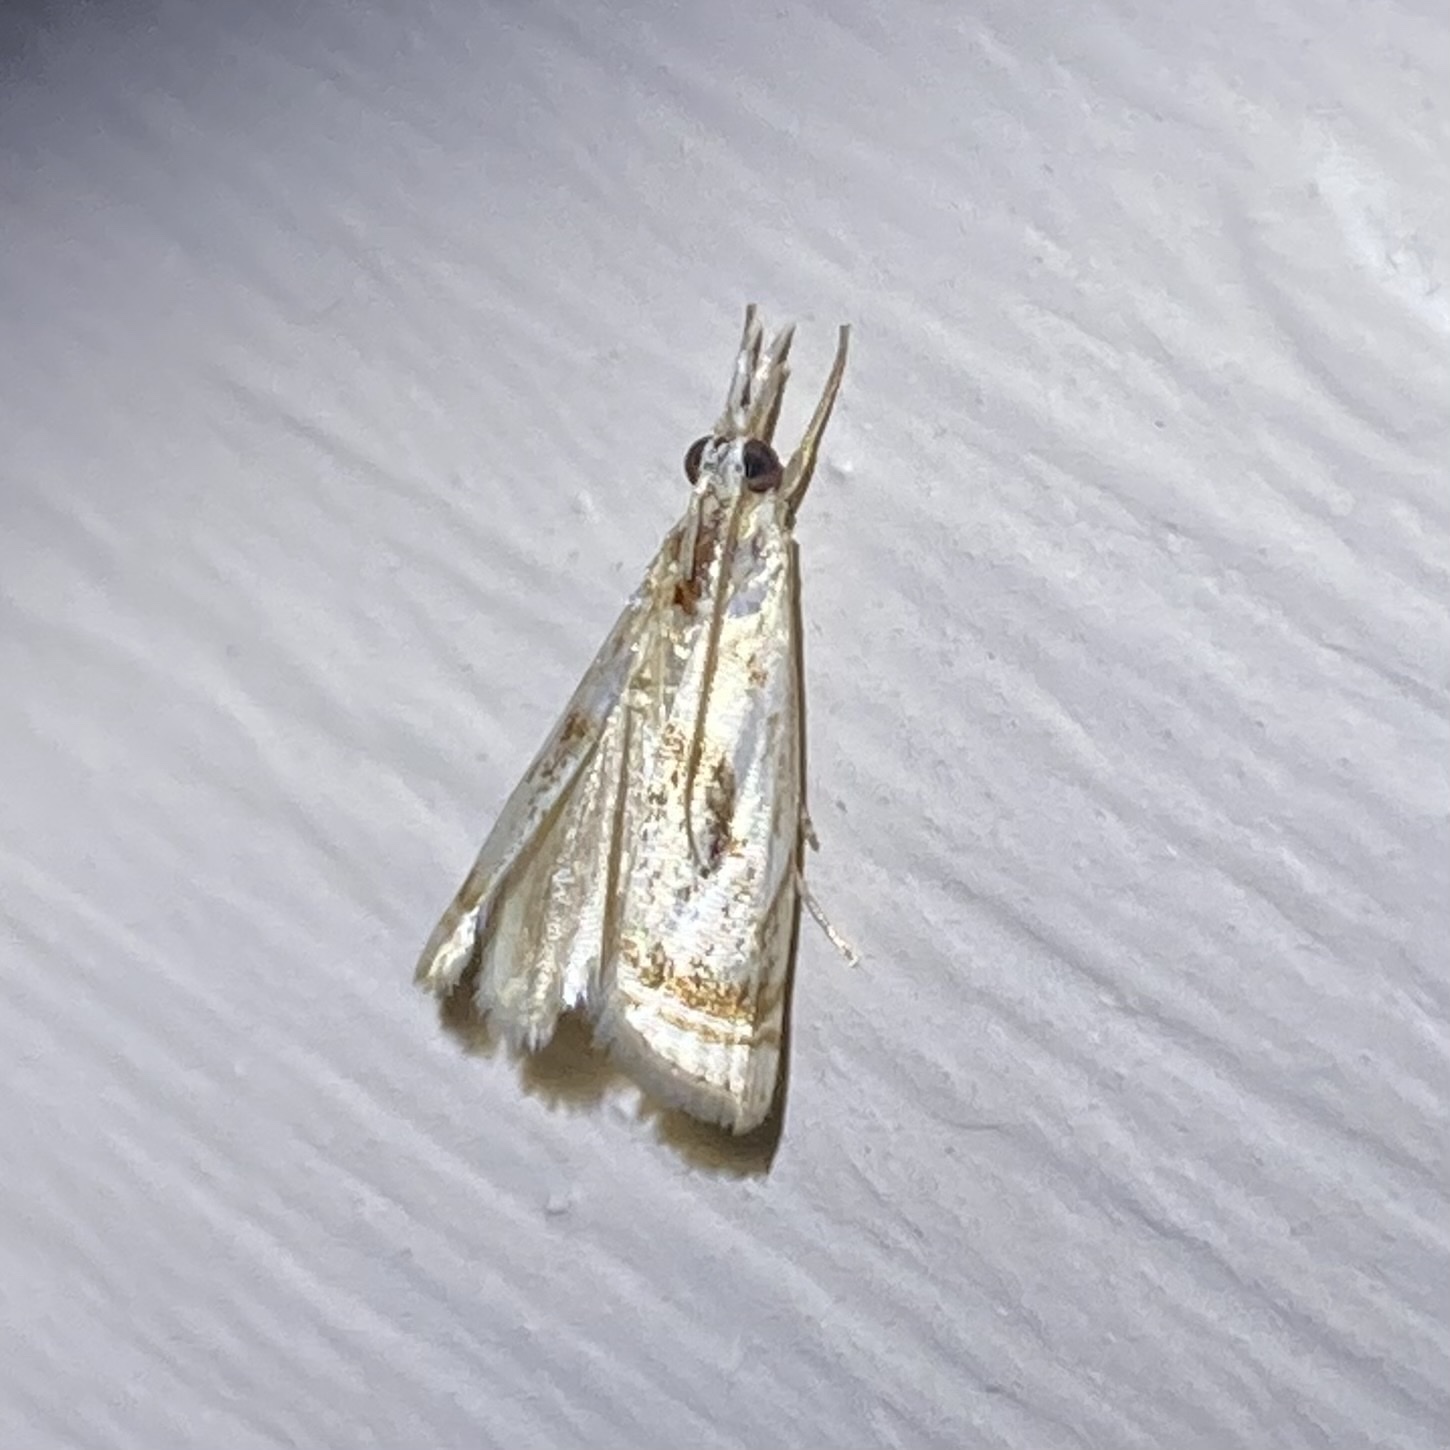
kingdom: Animalia
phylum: Arthropoda
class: Insecta
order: Lepidoptera
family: Crambidae
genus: Microcrambus
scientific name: Microcrambus elegans
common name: Elegant grass-veneer
